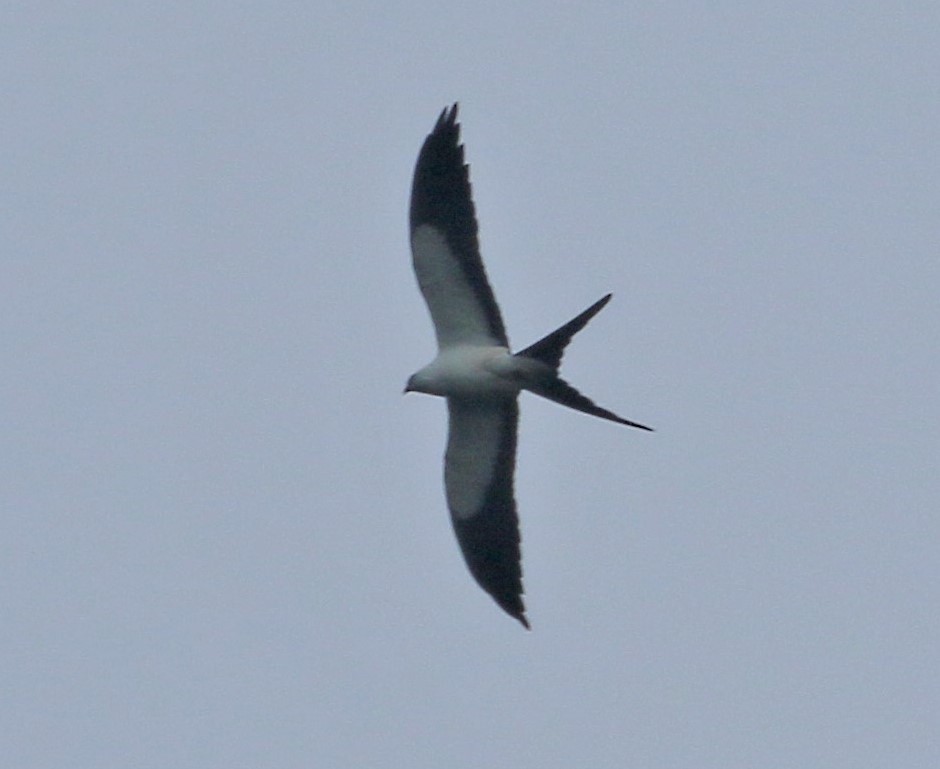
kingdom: Animalia
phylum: Chordata
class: Aves
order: Accipitriformes
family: Accipitridae
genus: Elanoides
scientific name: Elanoides forficatus
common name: Swallow-tailed kite
